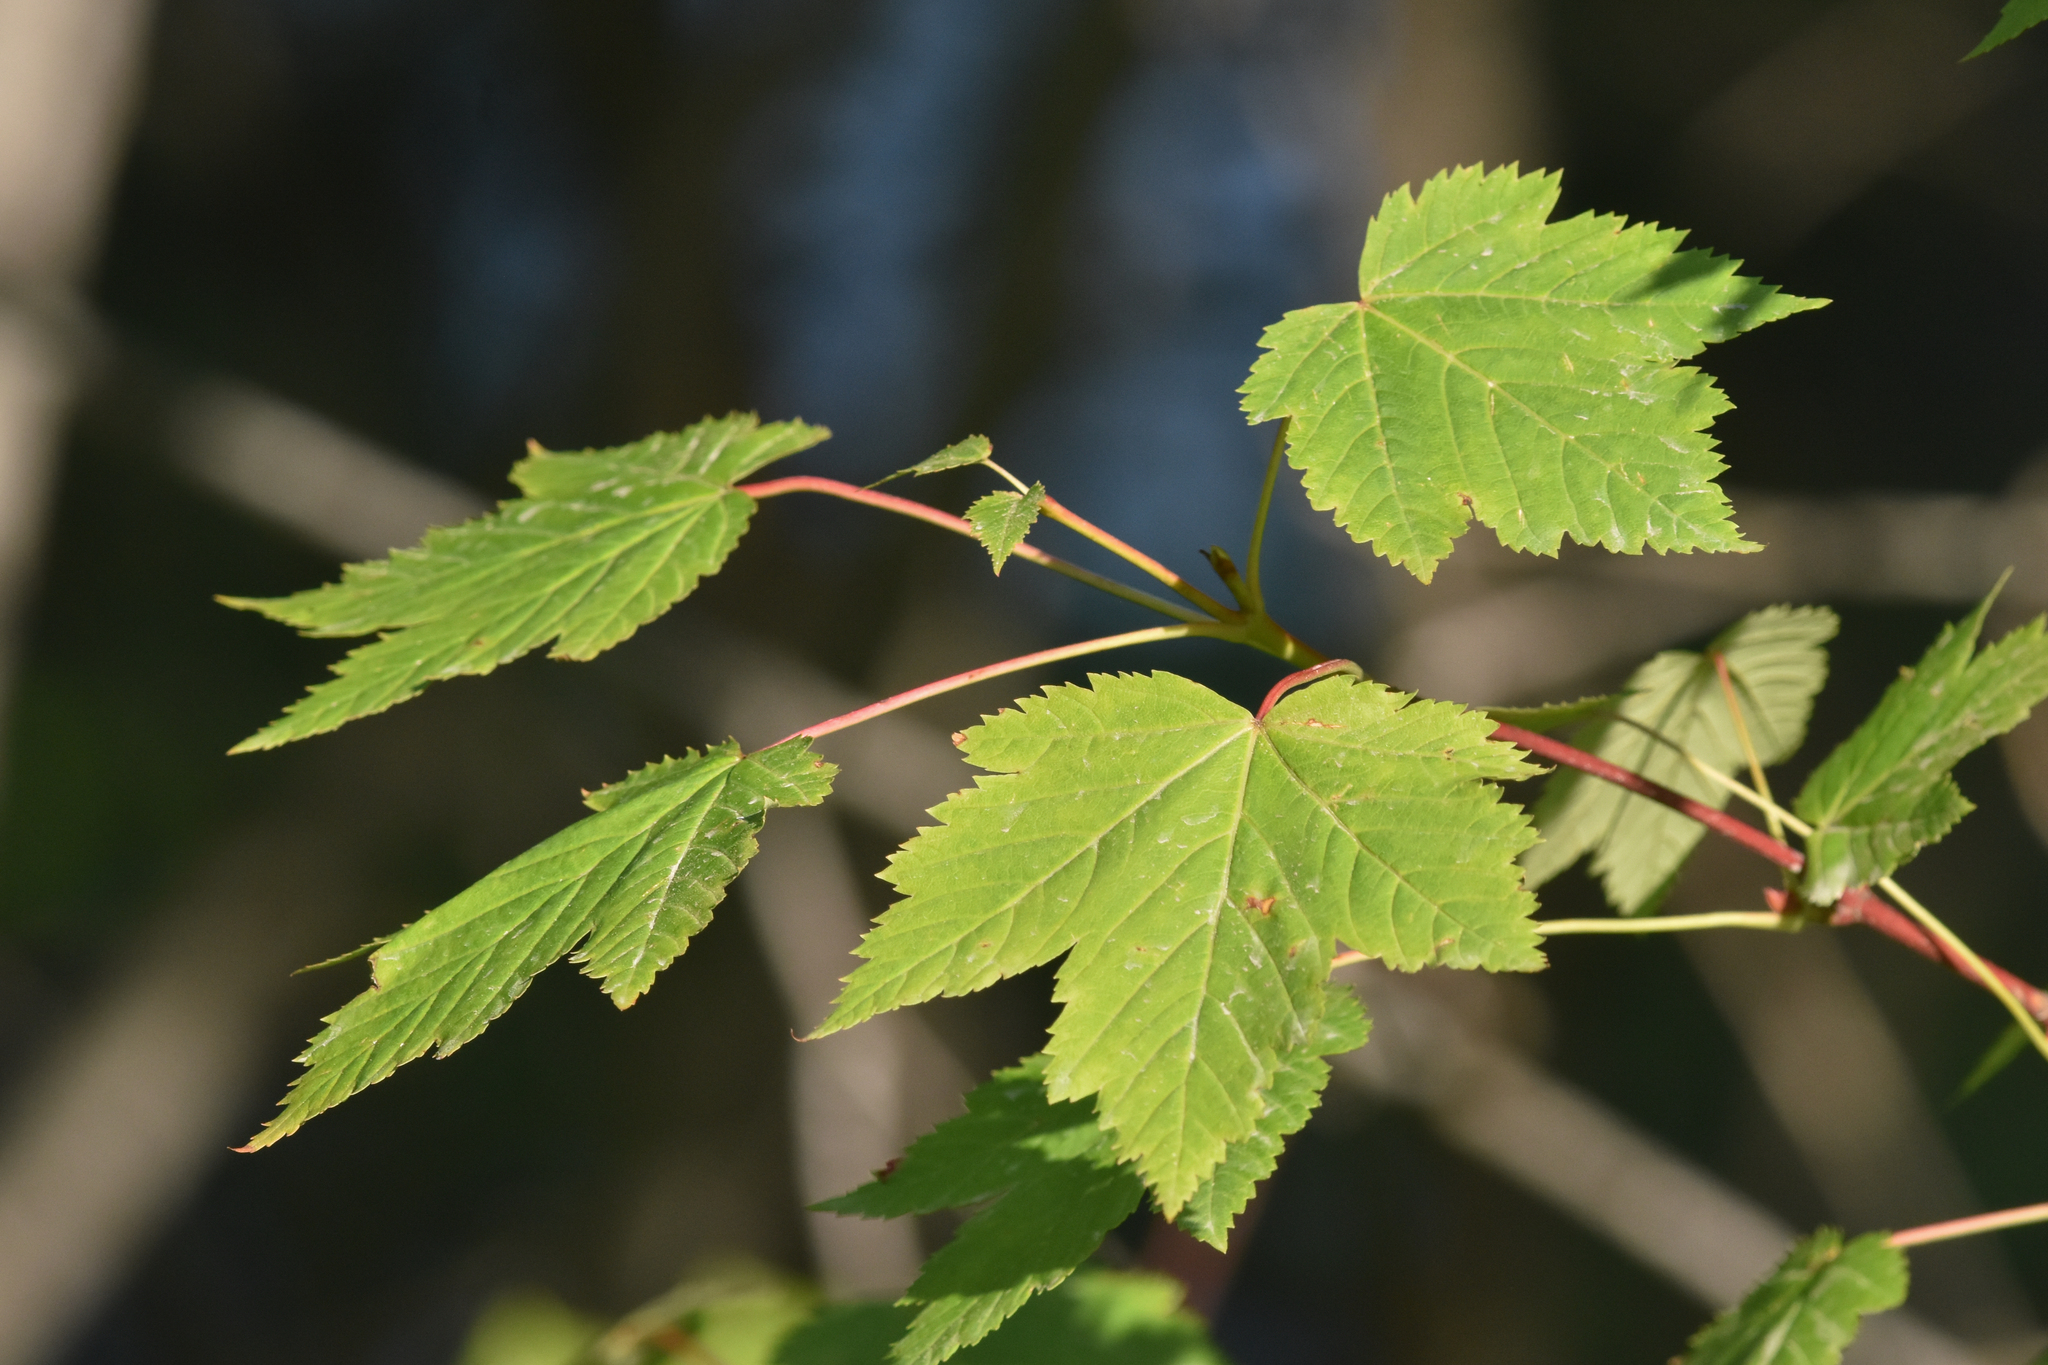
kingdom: Plantae
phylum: Tracheophyta
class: Magnoliopsida
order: Sapindales
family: Sapindaceae
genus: Acer
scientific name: Acer glabrum
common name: Rocky mountain maple
